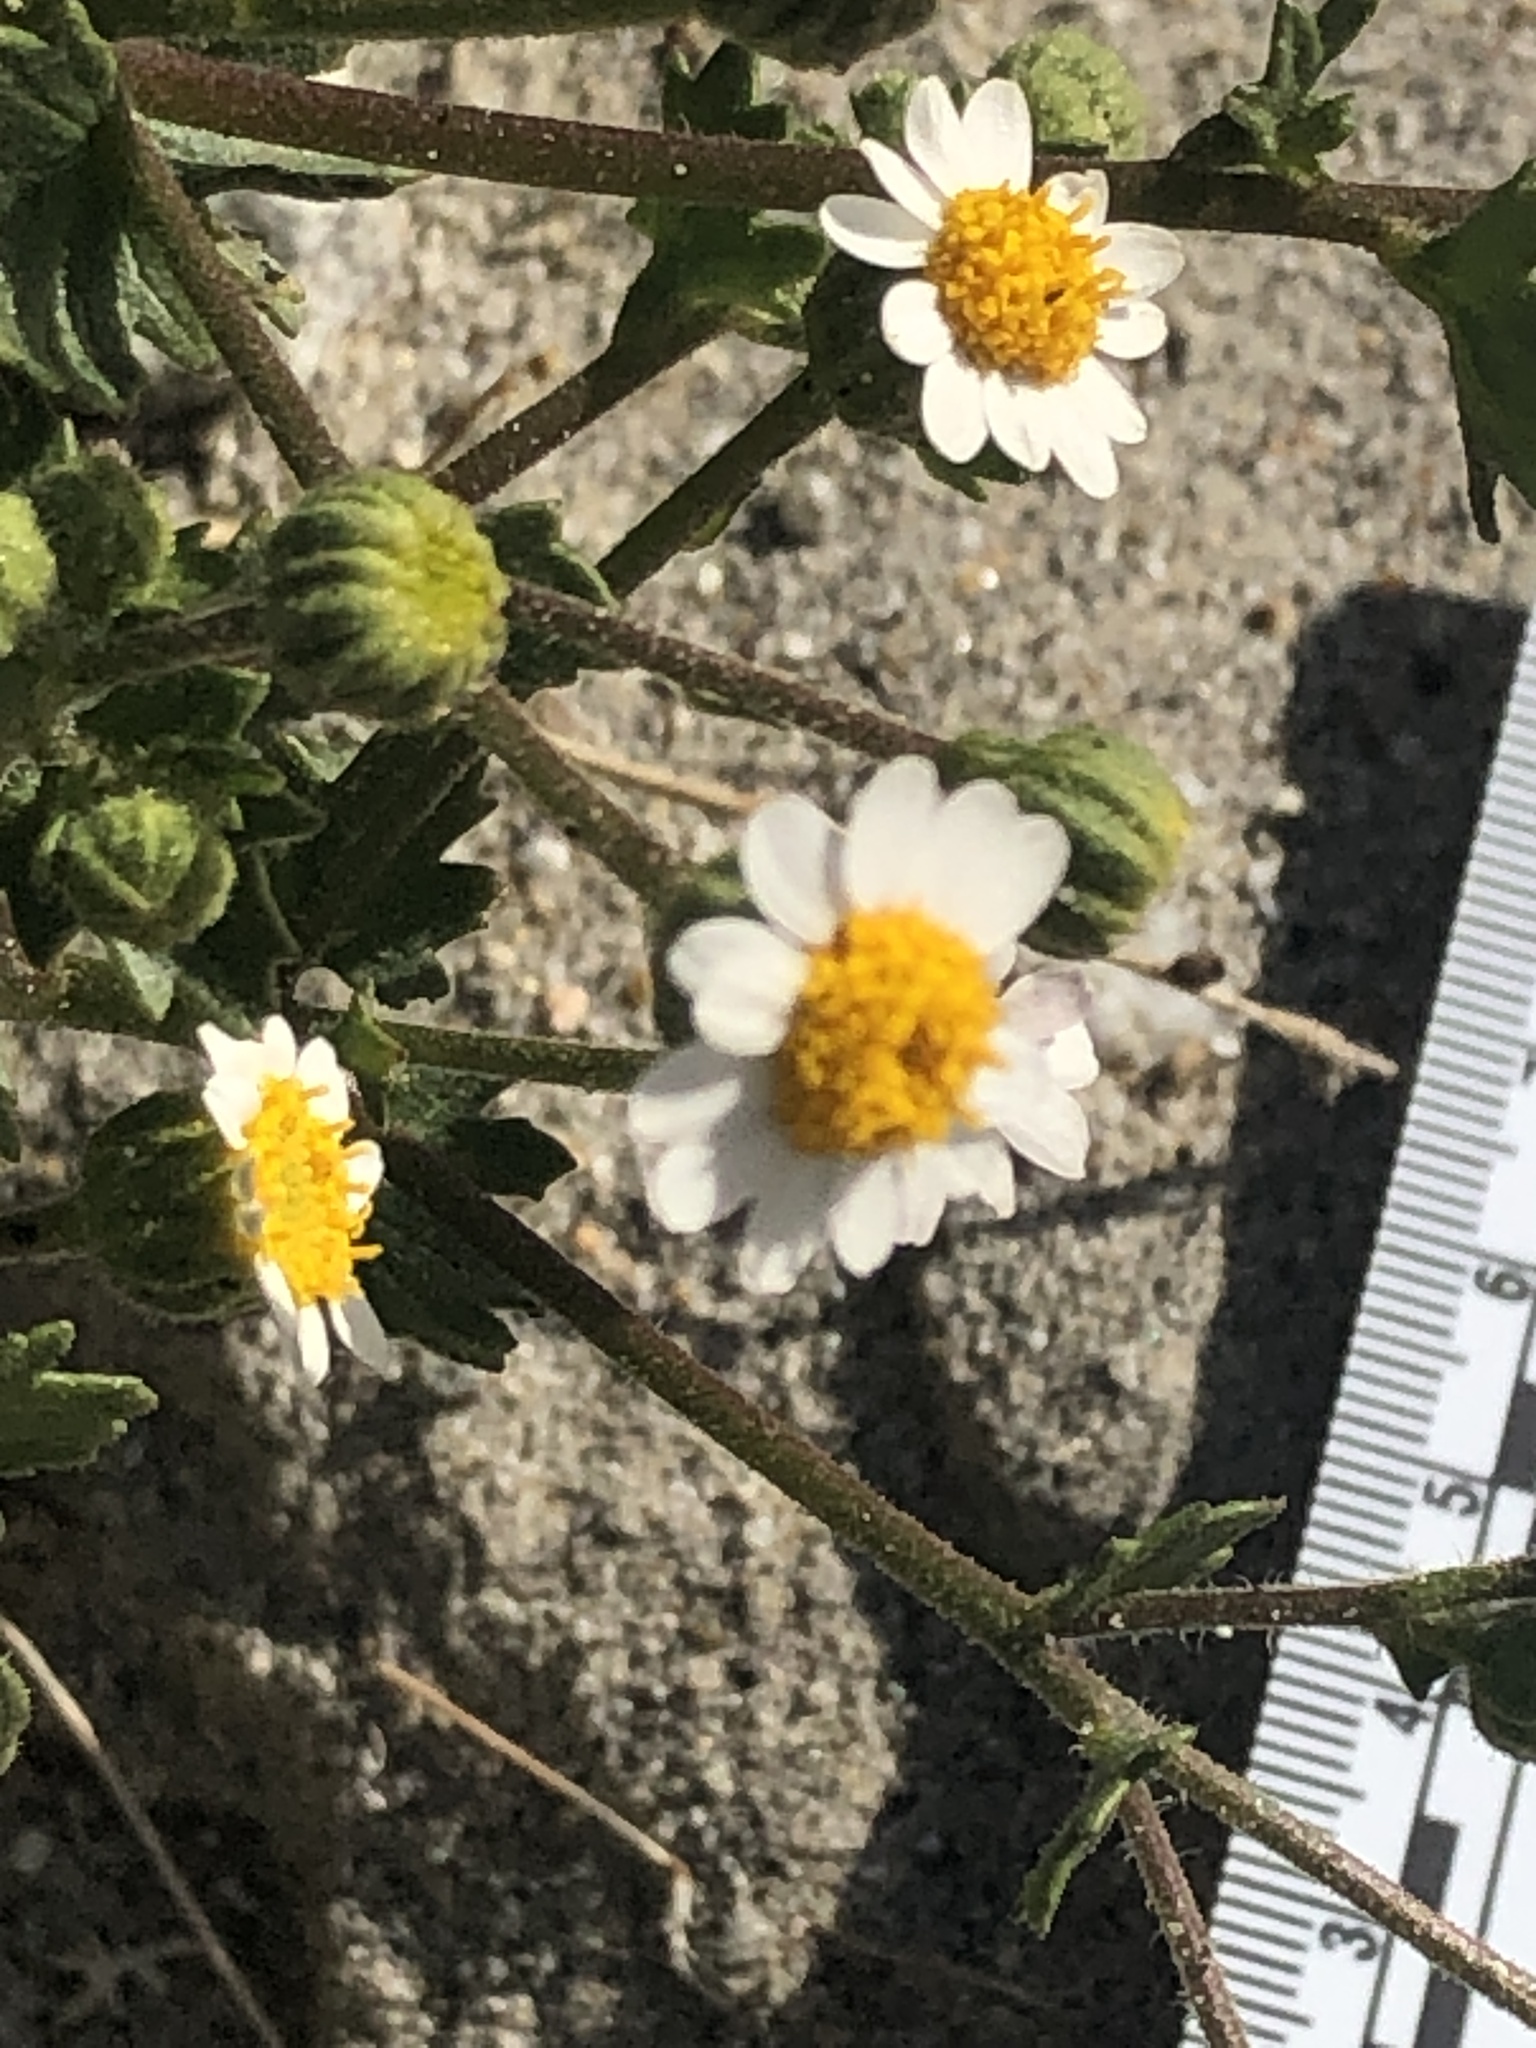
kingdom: Plantae
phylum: Tracheophyta
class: Magnoliopsida
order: Asterales
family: Asteraceae
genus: Laphamia
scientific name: Laphamia emoryi
